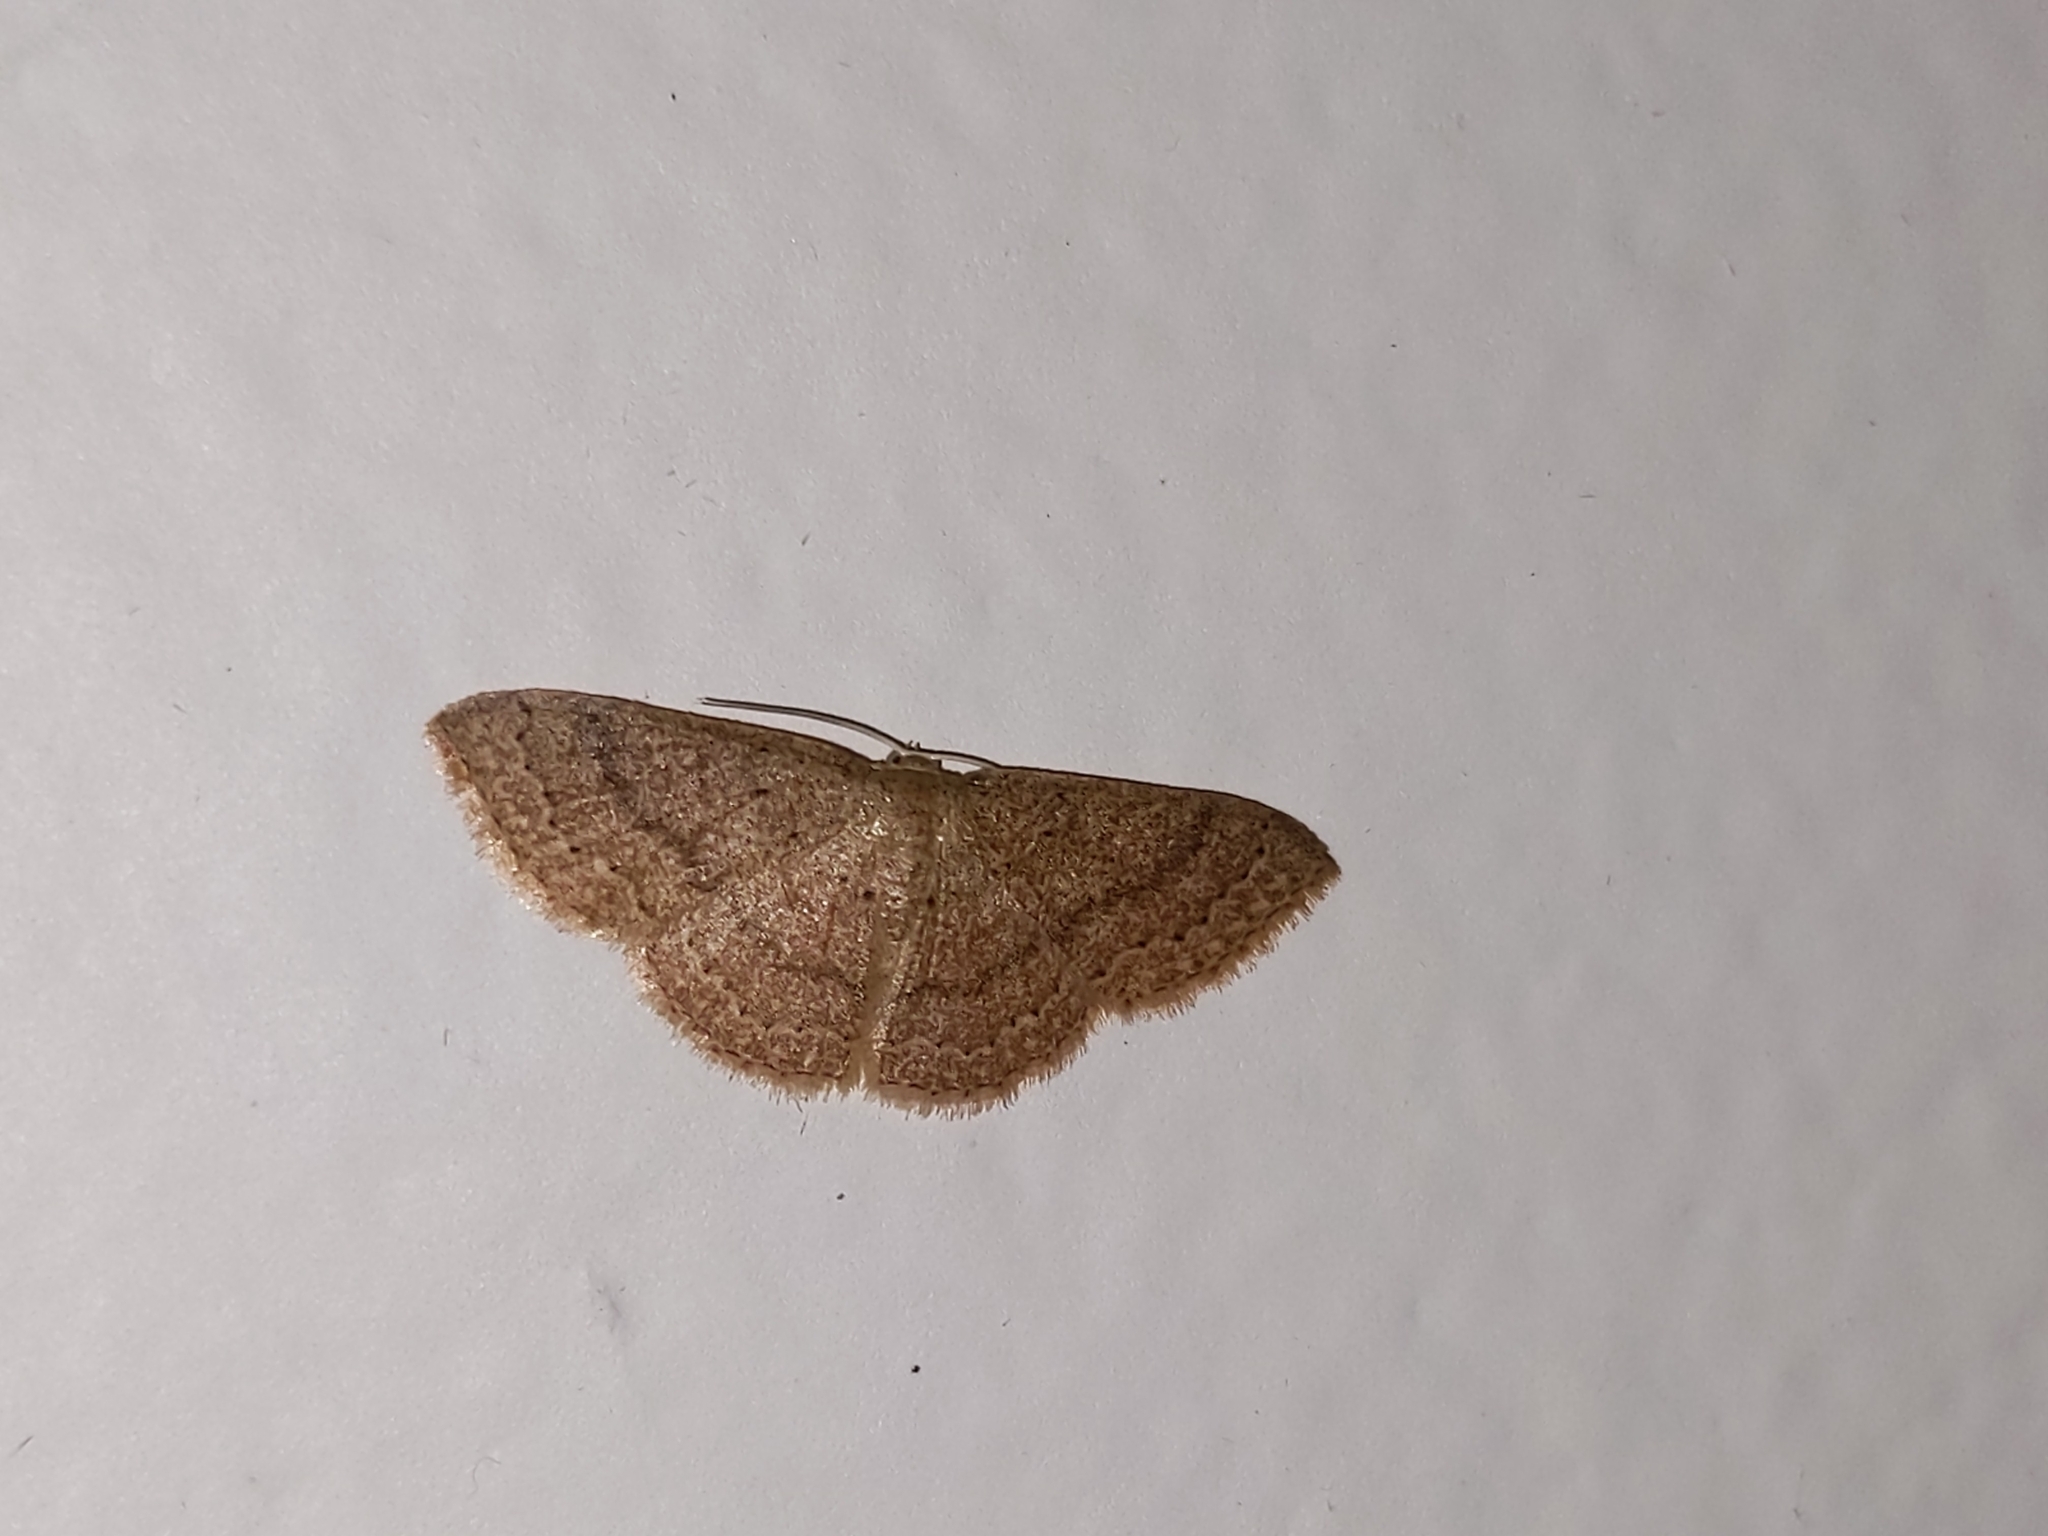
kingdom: Animalia
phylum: Arthropoda
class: Insecta
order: Lepidoptera
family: Geometridae
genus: Pleuroprucha
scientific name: Pleuroprucha insulsaria
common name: Common tan wave
